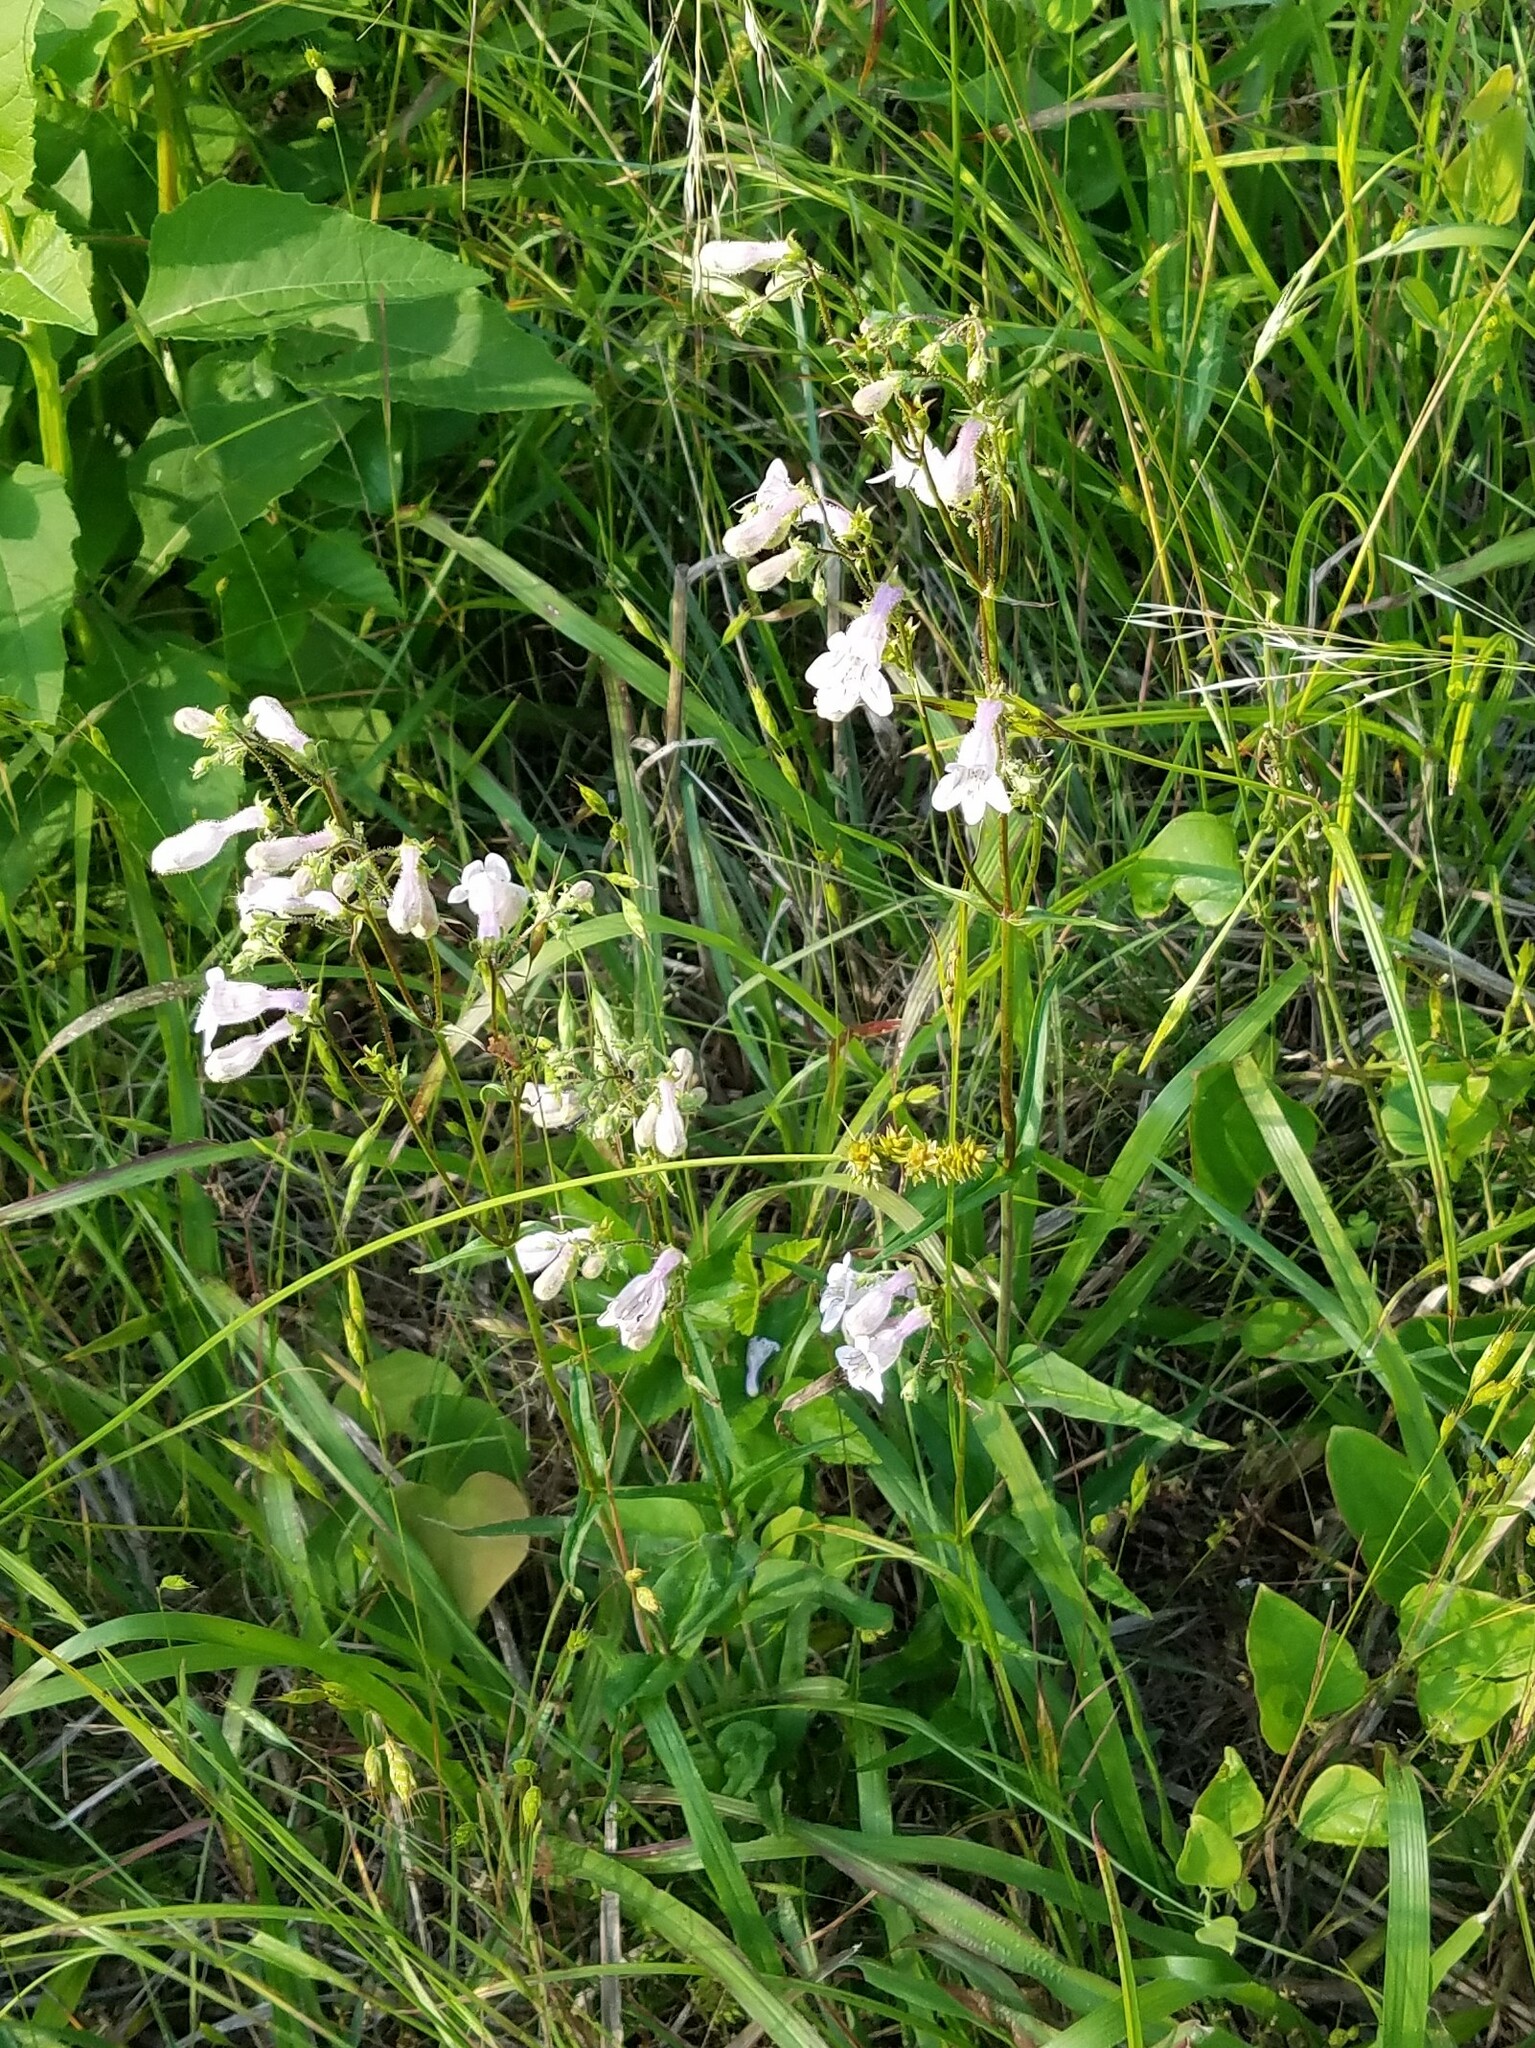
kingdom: Plantae
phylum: Tracheophyta
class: Magnoliopsida
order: Lamiales
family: Plantaginaceae
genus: Penstemon
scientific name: Penstemon laevigatus
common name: Eastern beardtongue
